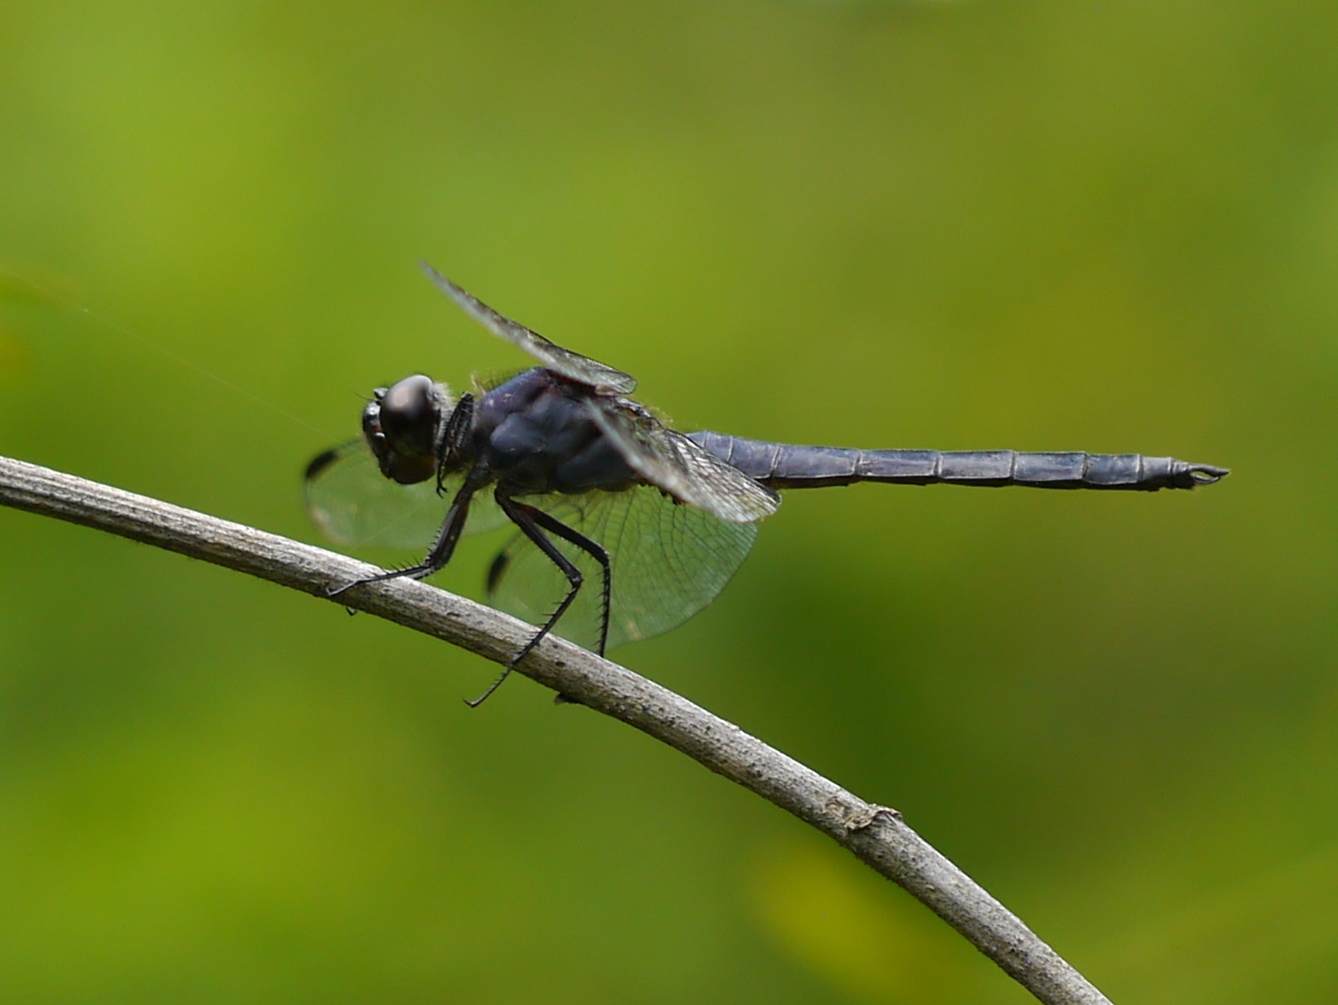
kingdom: Animalia
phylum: Arthropoda
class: Insecta
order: Odonata
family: Libellulidae
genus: Libellula
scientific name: Libellula incesta
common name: Slaty skimmer
